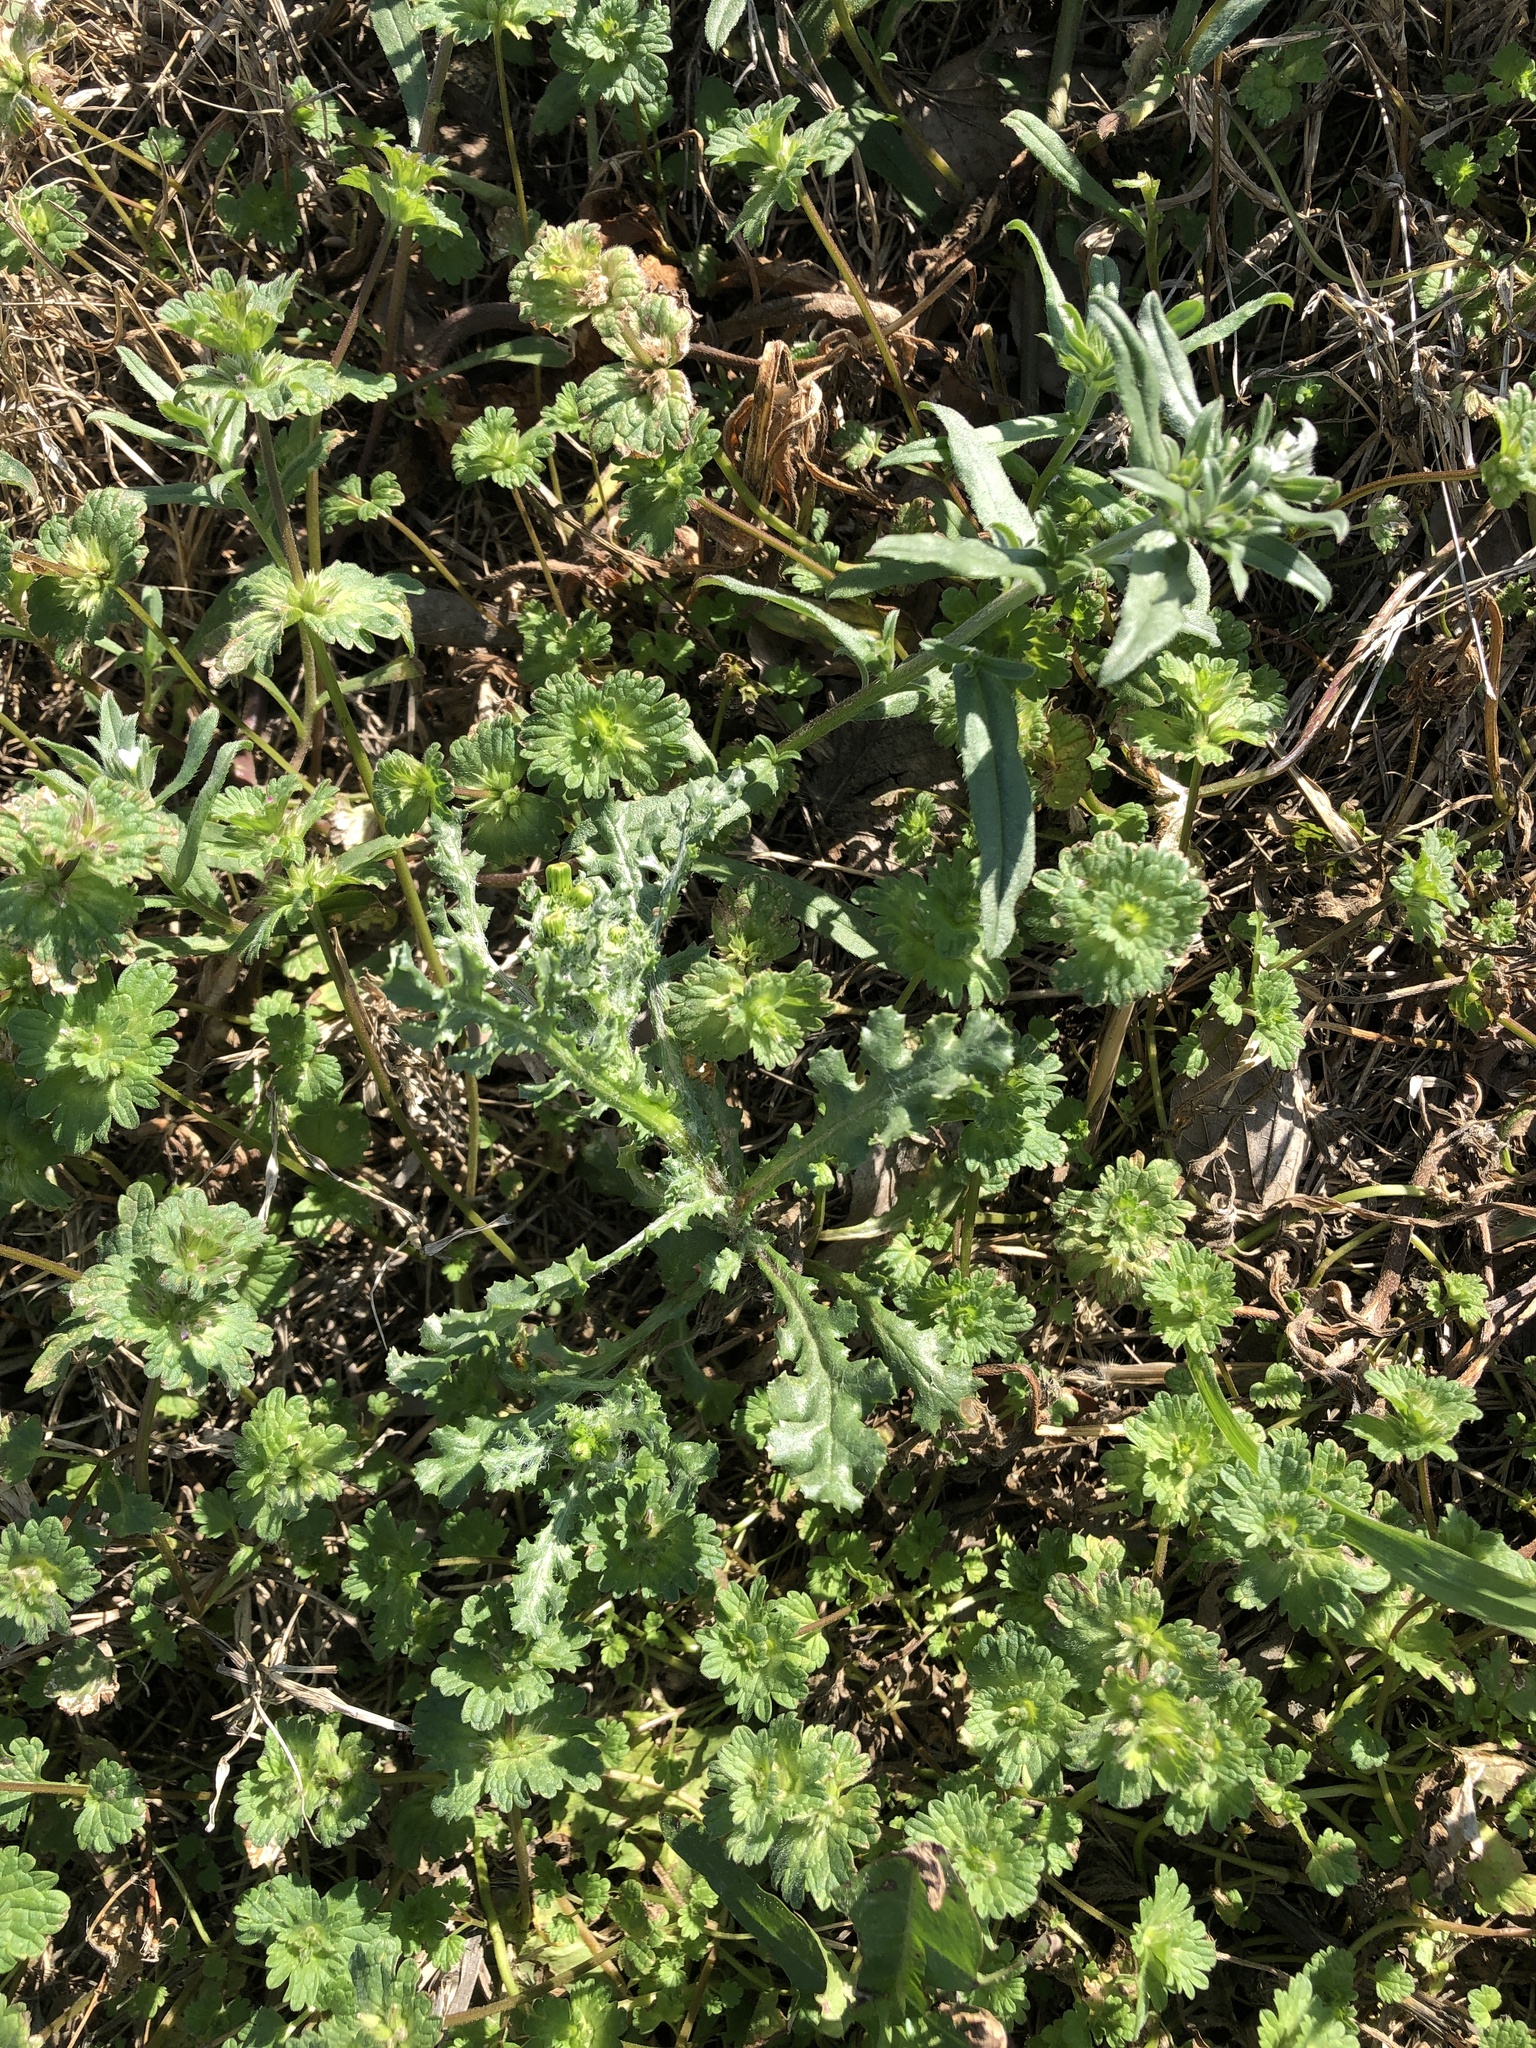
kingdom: Plantae
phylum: Tracheophyta
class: Magnoliopsida
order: Asterales
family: Asteraceae
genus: Senecio
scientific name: Senecio vulgaris
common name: Old-man-in-the-spring
